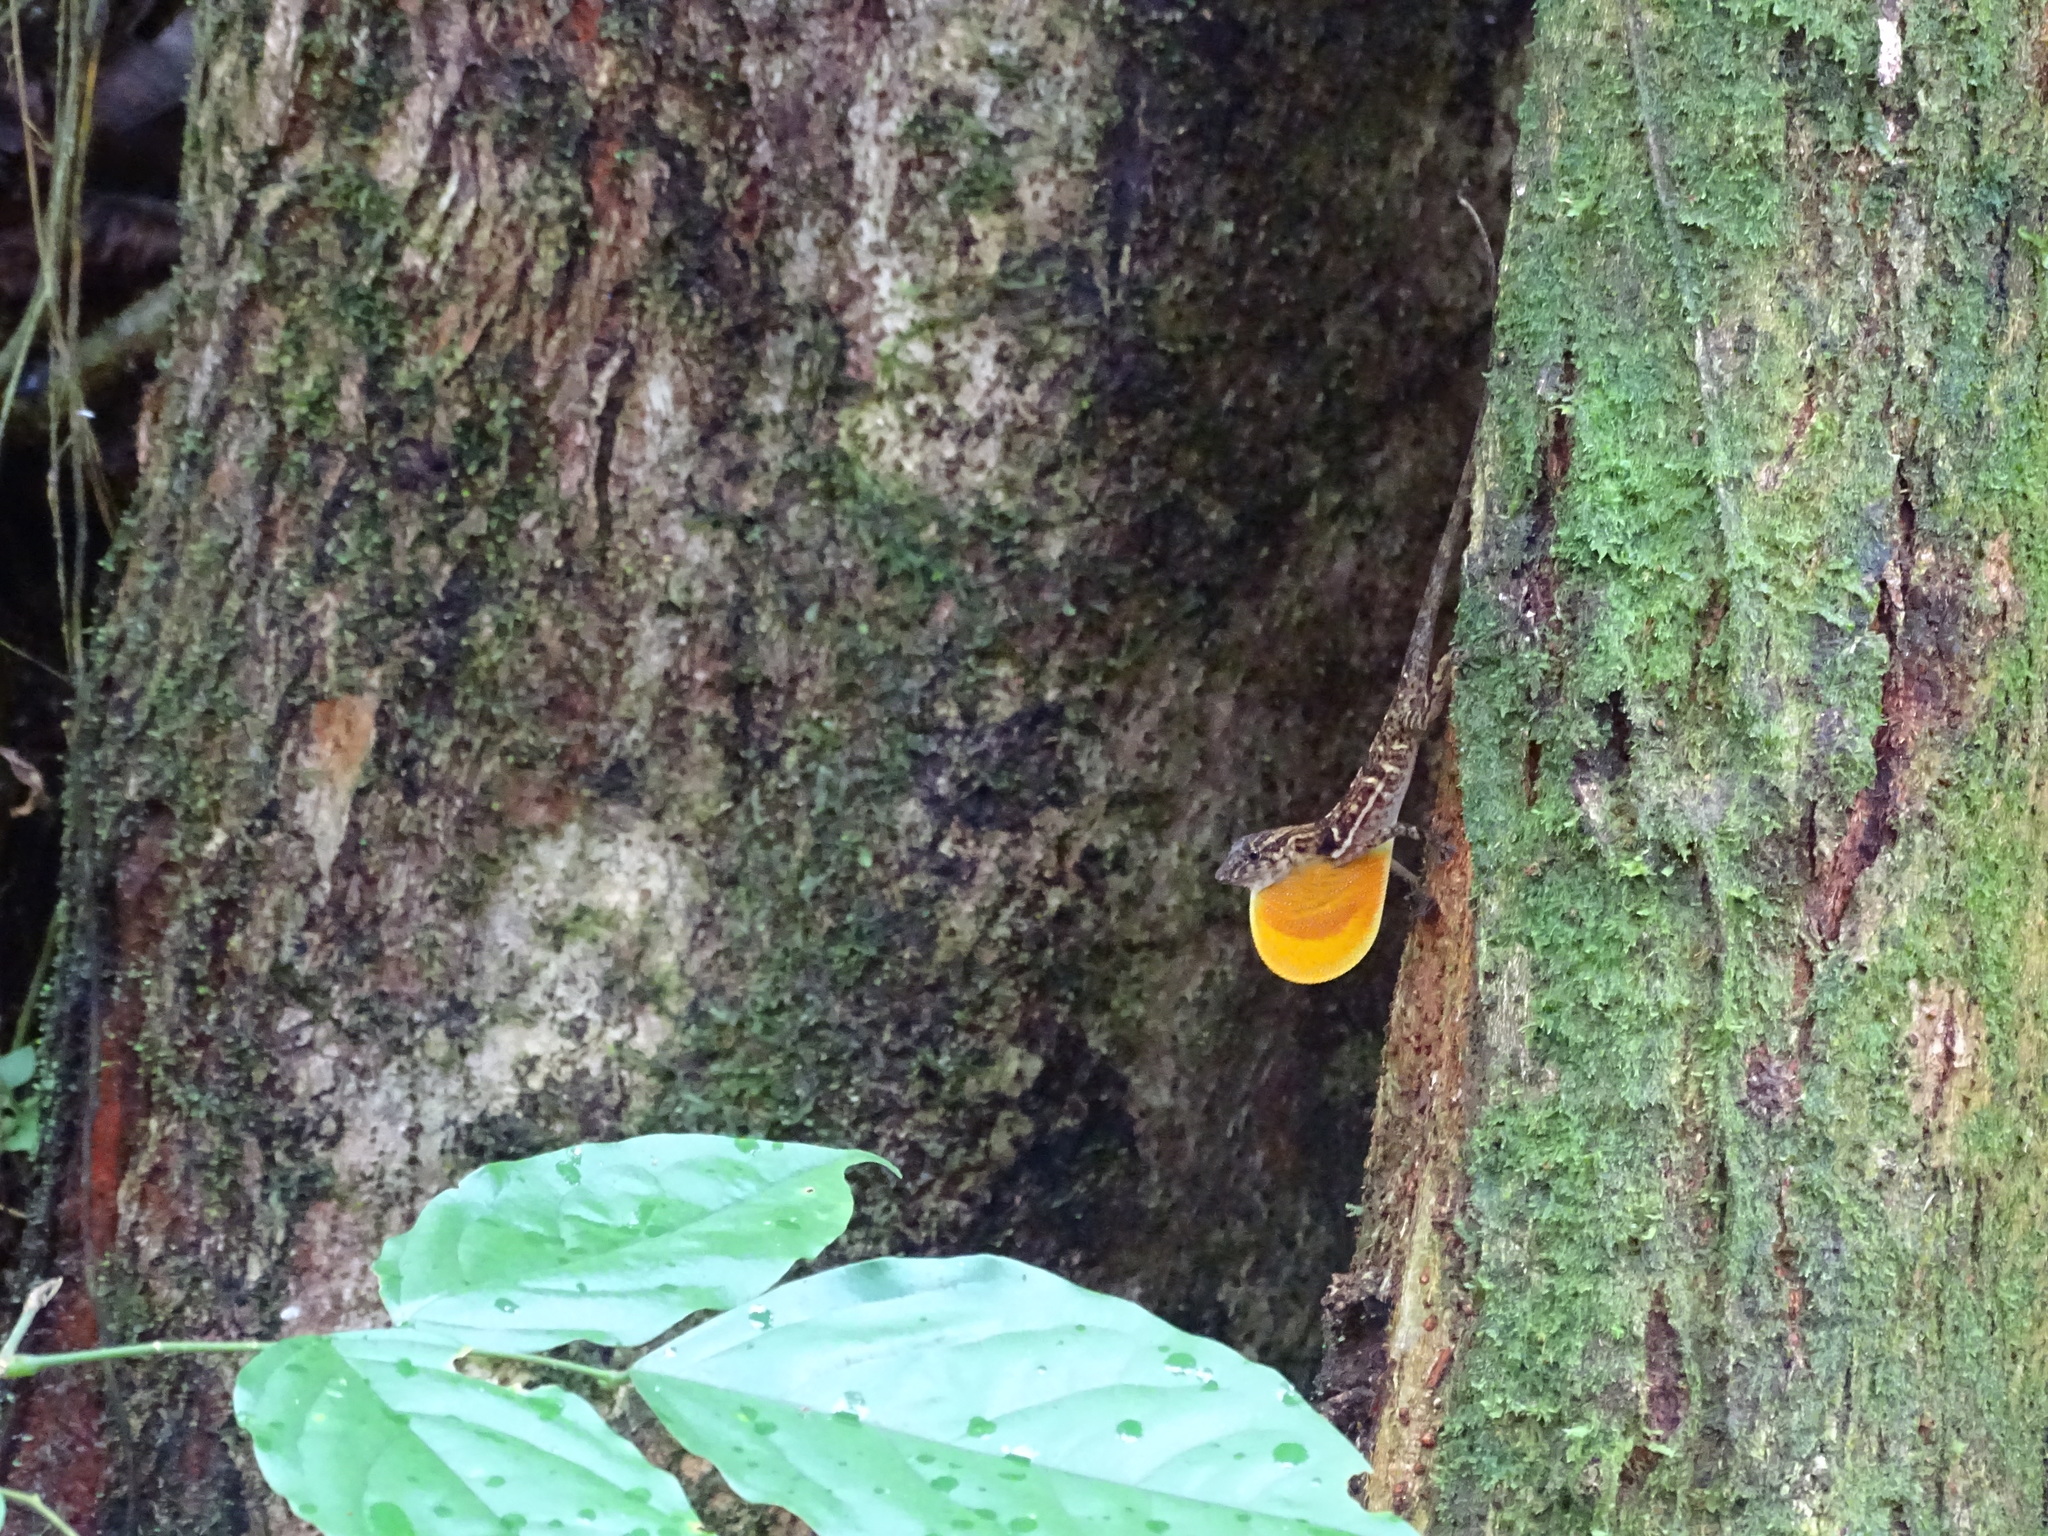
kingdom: Animalia
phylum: Chordata
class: Squamata
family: Dactyloidae
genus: Anolis
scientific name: Anolis osa
